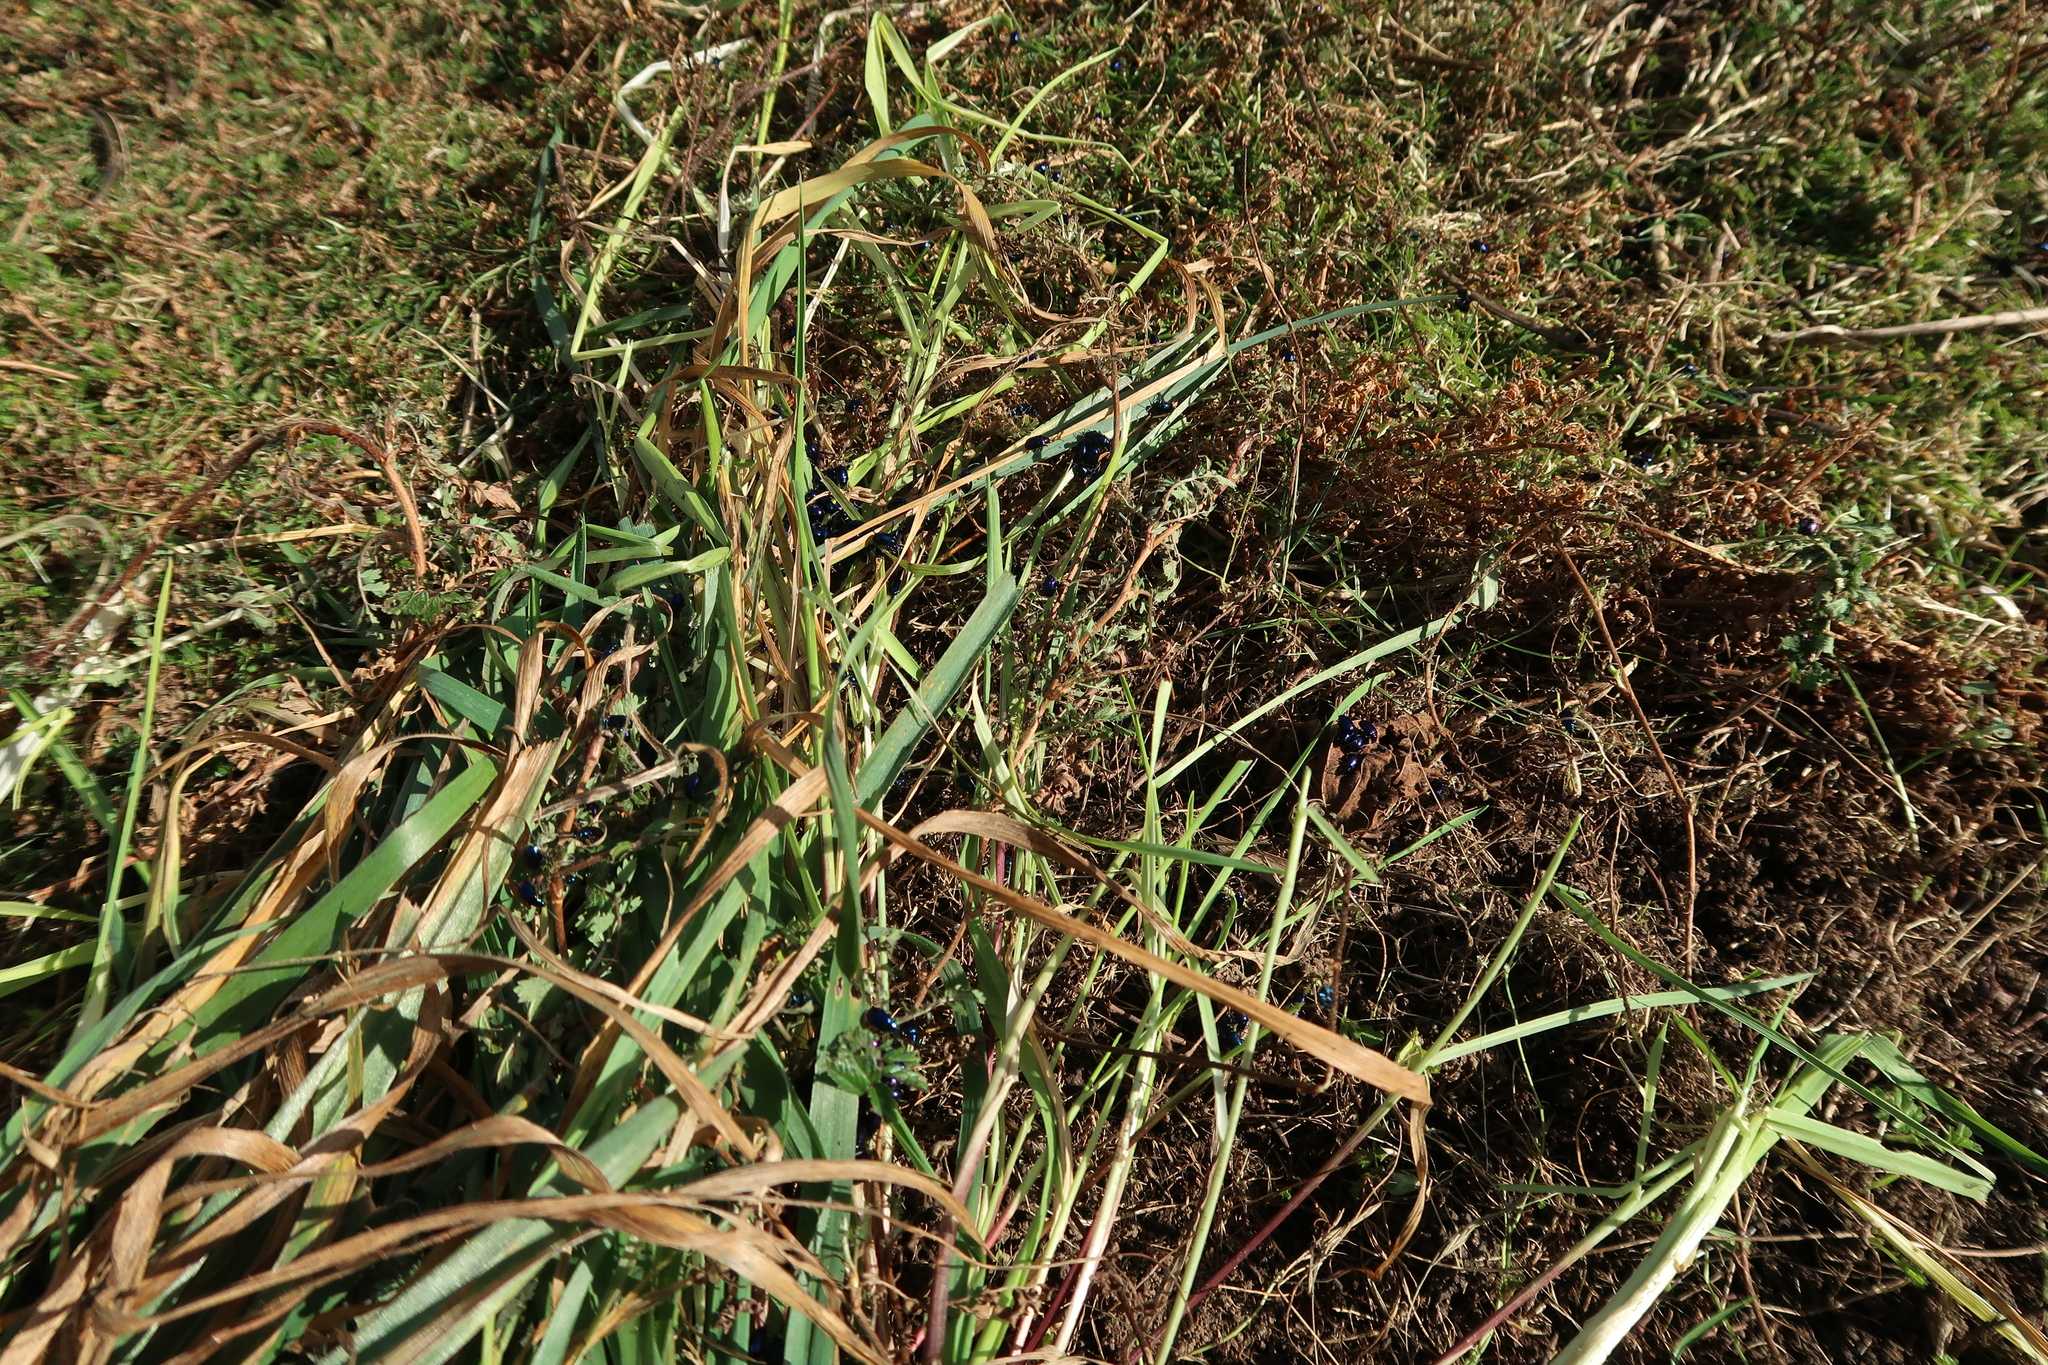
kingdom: Animalia
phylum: Arthropoda
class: Insecta
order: Coleoptera
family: Chrysomelidae
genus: Altica
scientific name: Altica corusca
